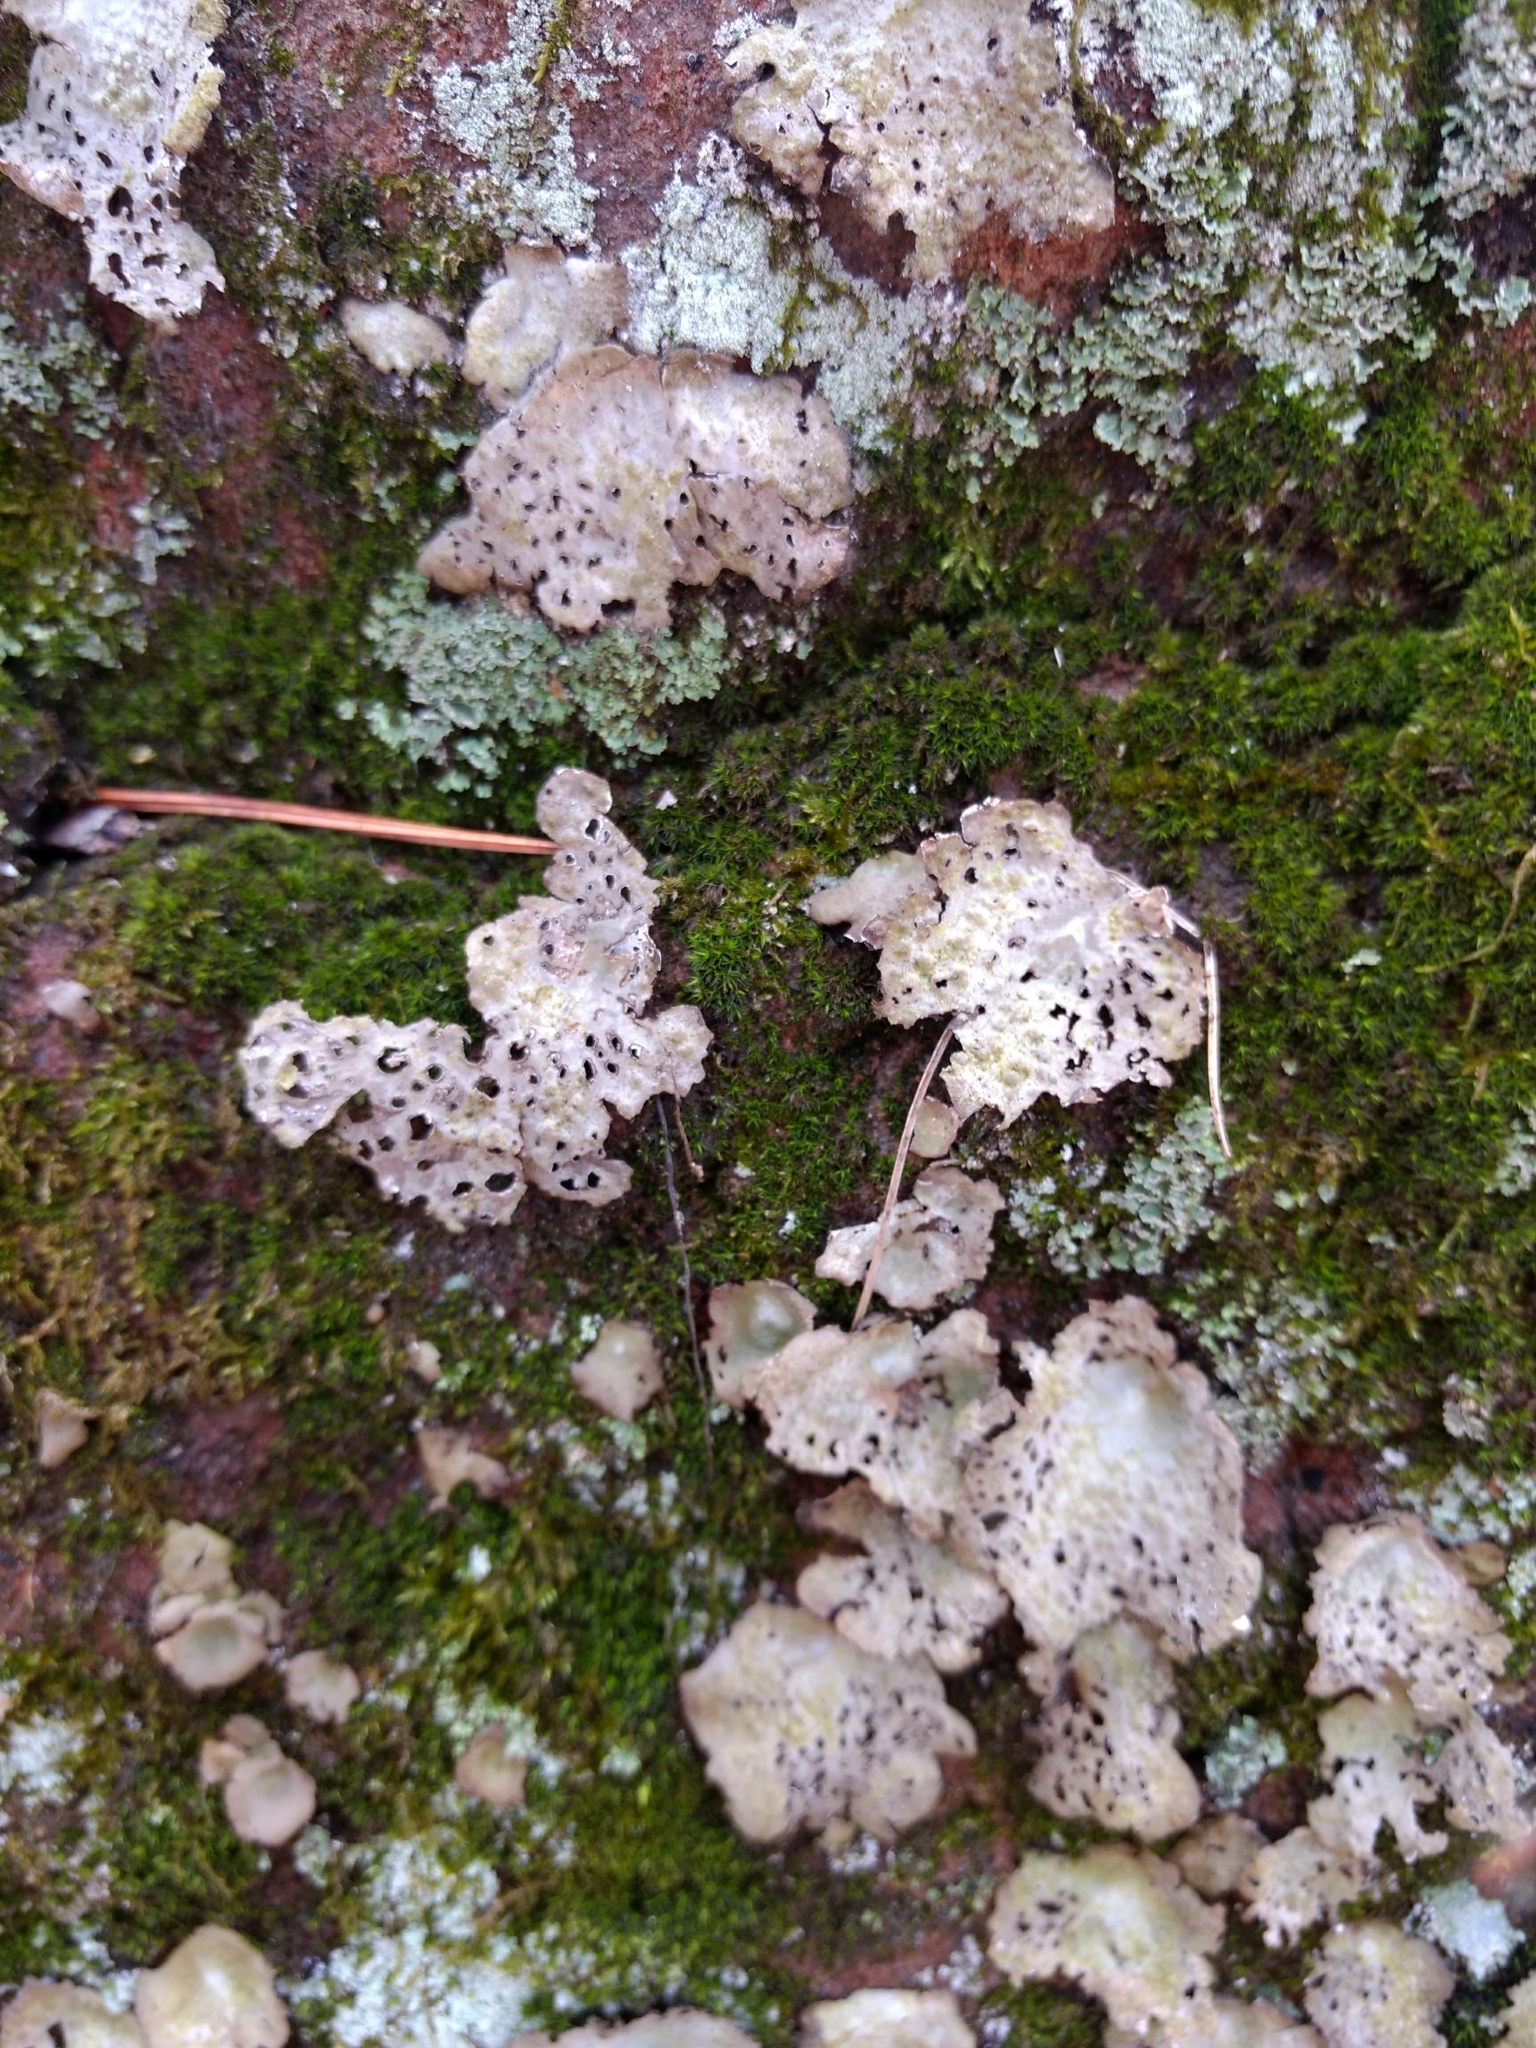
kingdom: Fungi
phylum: Ascomycota
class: Lecanoromycetes
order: Umbilicariales
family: Umbilicariaceae
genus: Lasallia
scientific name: Lasallia papulosa
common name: Common toadskin lichen
